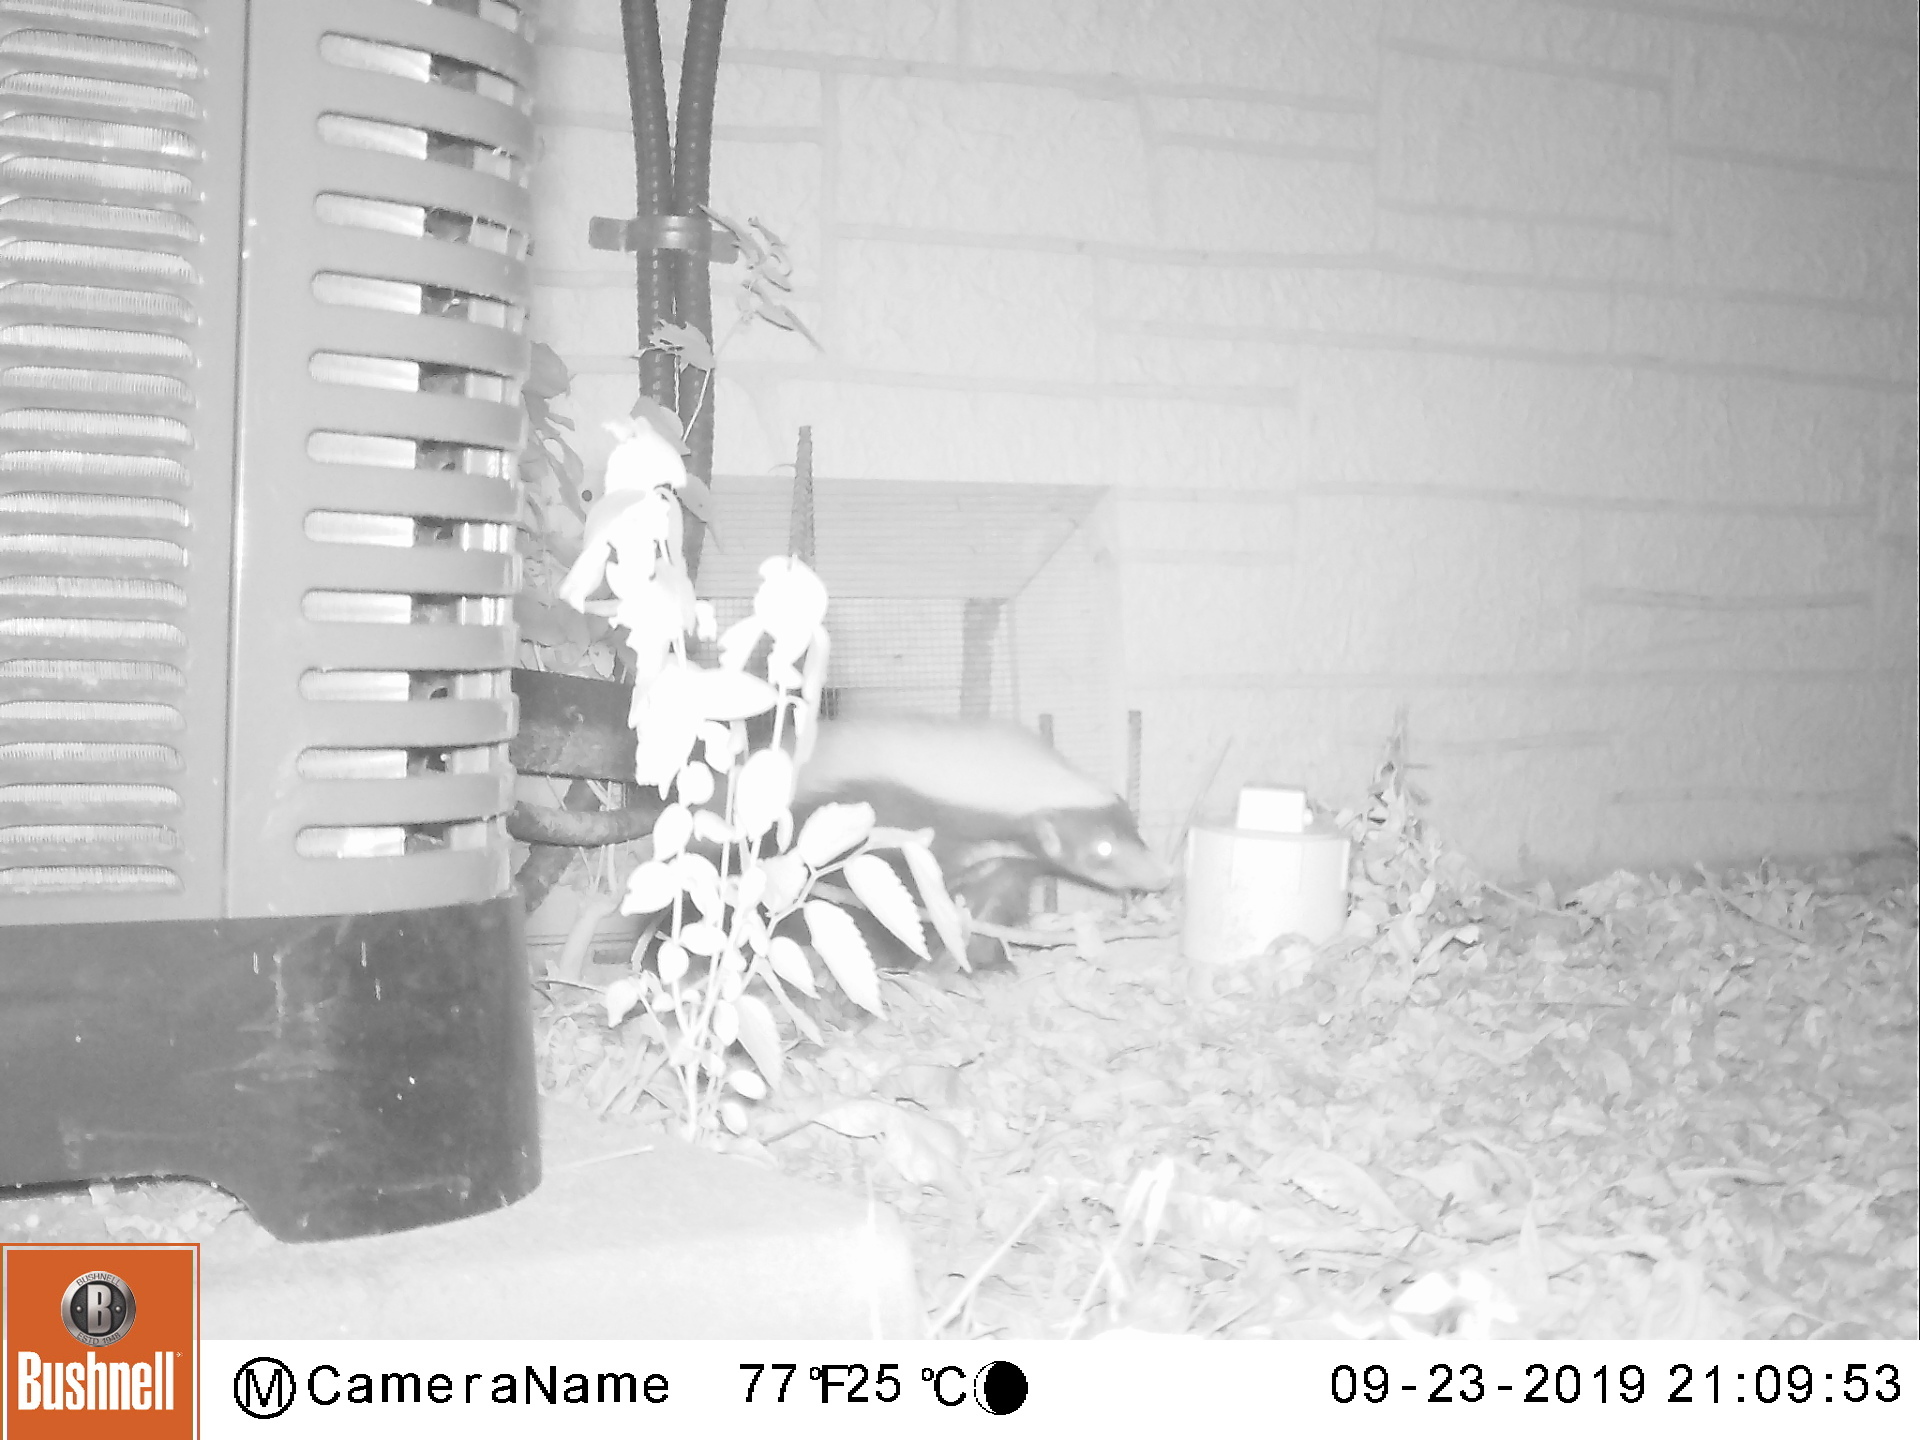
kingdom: Animalia
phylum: Chordata
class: Mammalia
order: Carnivora
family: Mephitidae
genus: Conepatus
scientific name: Conepatus leuconotus
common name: Eastern hog-nosed skunk
